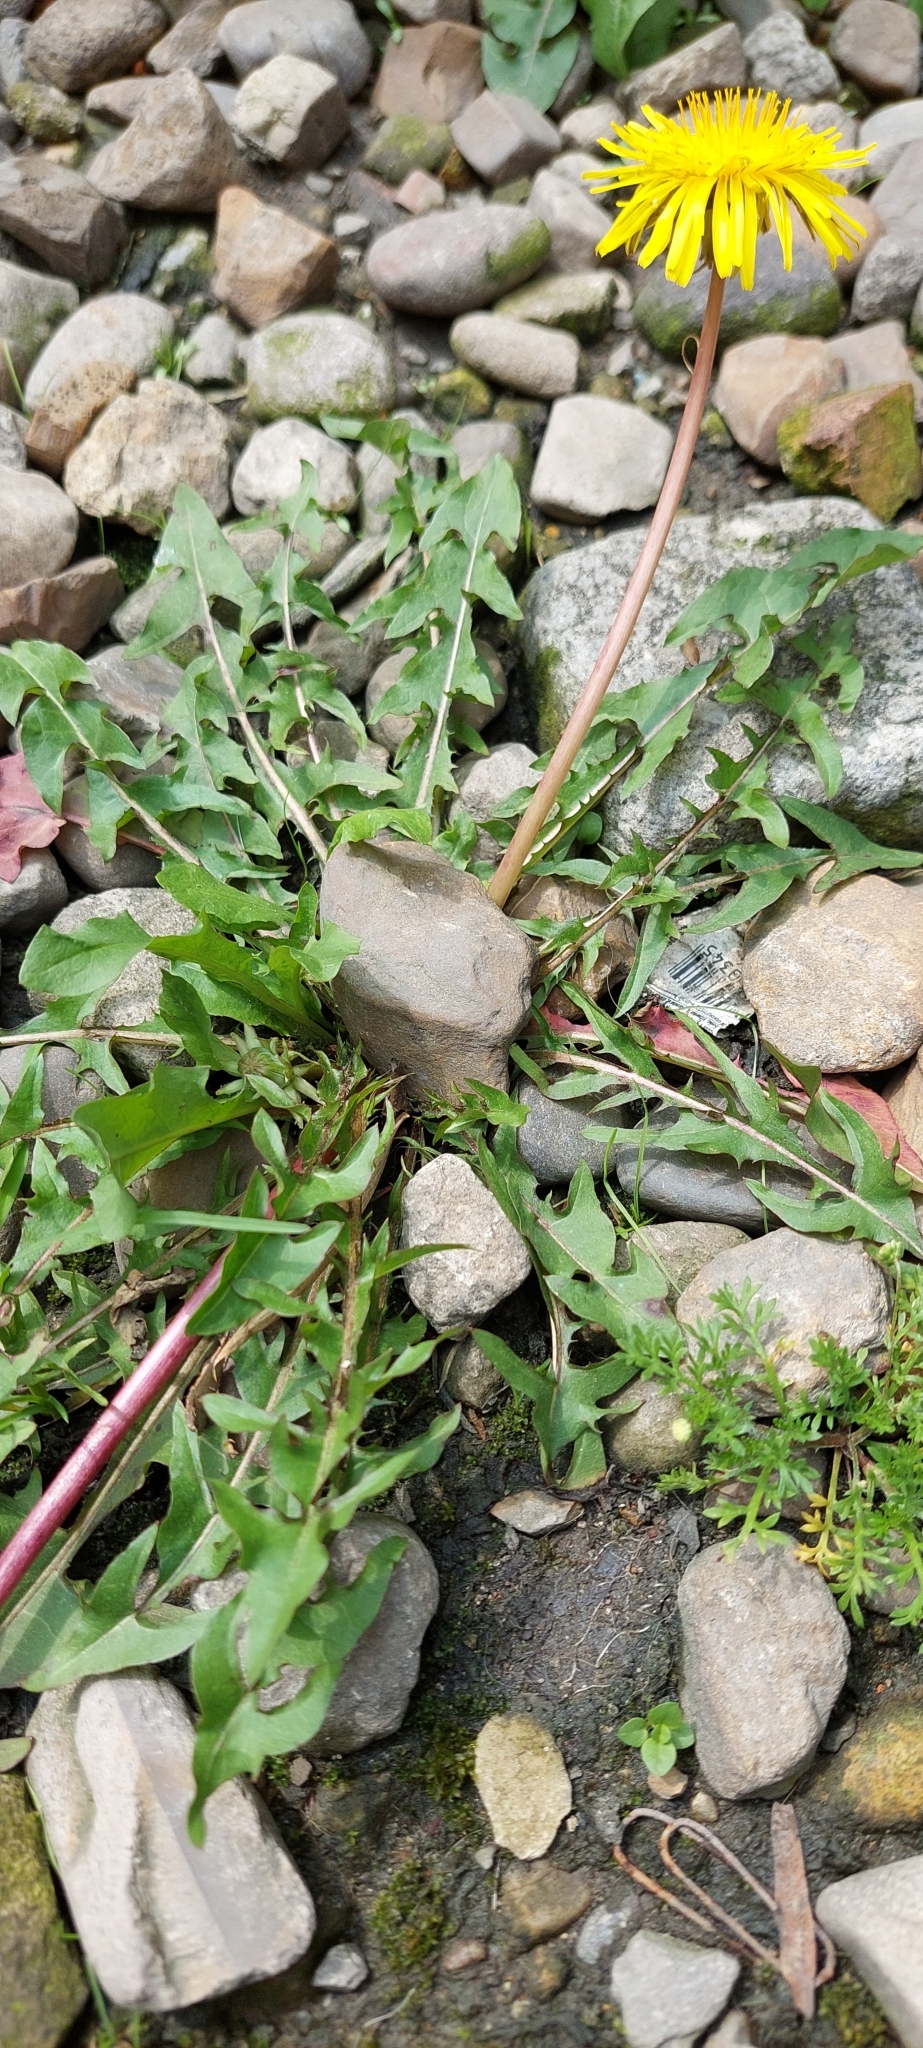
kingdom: Plantae
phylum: Tracheophyta
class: Magnoliopsida
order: Asterales
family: Asteraceae
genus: Taraxacum
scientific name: Taraxacum
